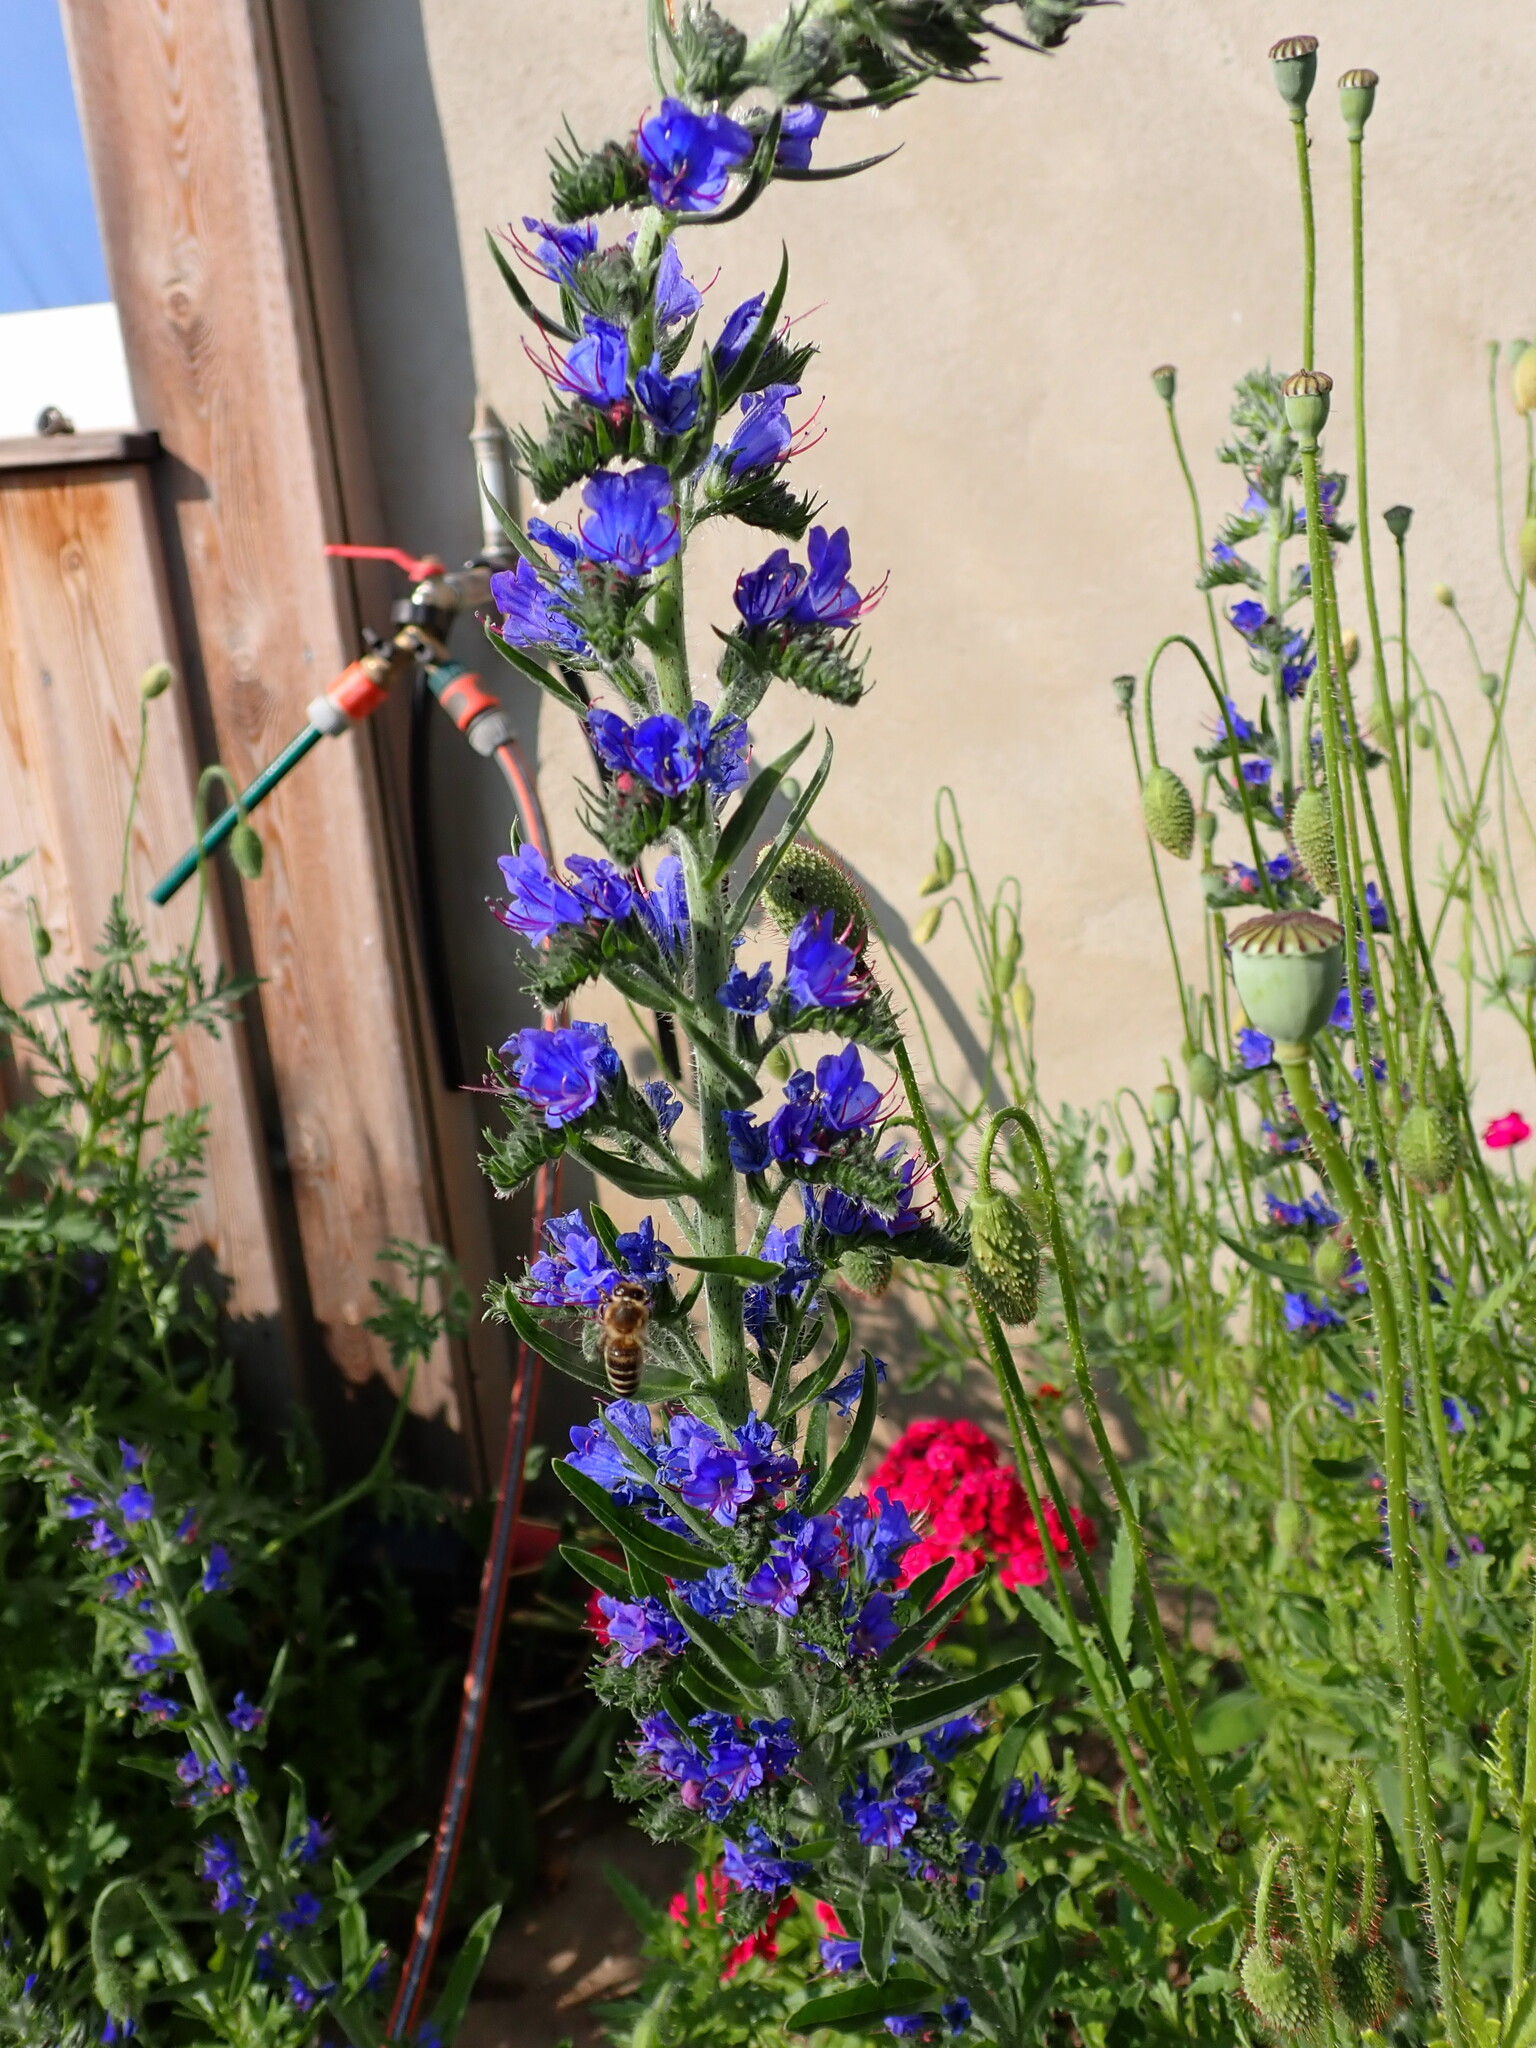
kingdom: Plantae
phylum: Tracheophyta
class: Magnoliopsida
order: Boraginales
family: Boraginaceae
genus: Echium
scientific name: Echium vulgare
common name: Common viper's bugloss
